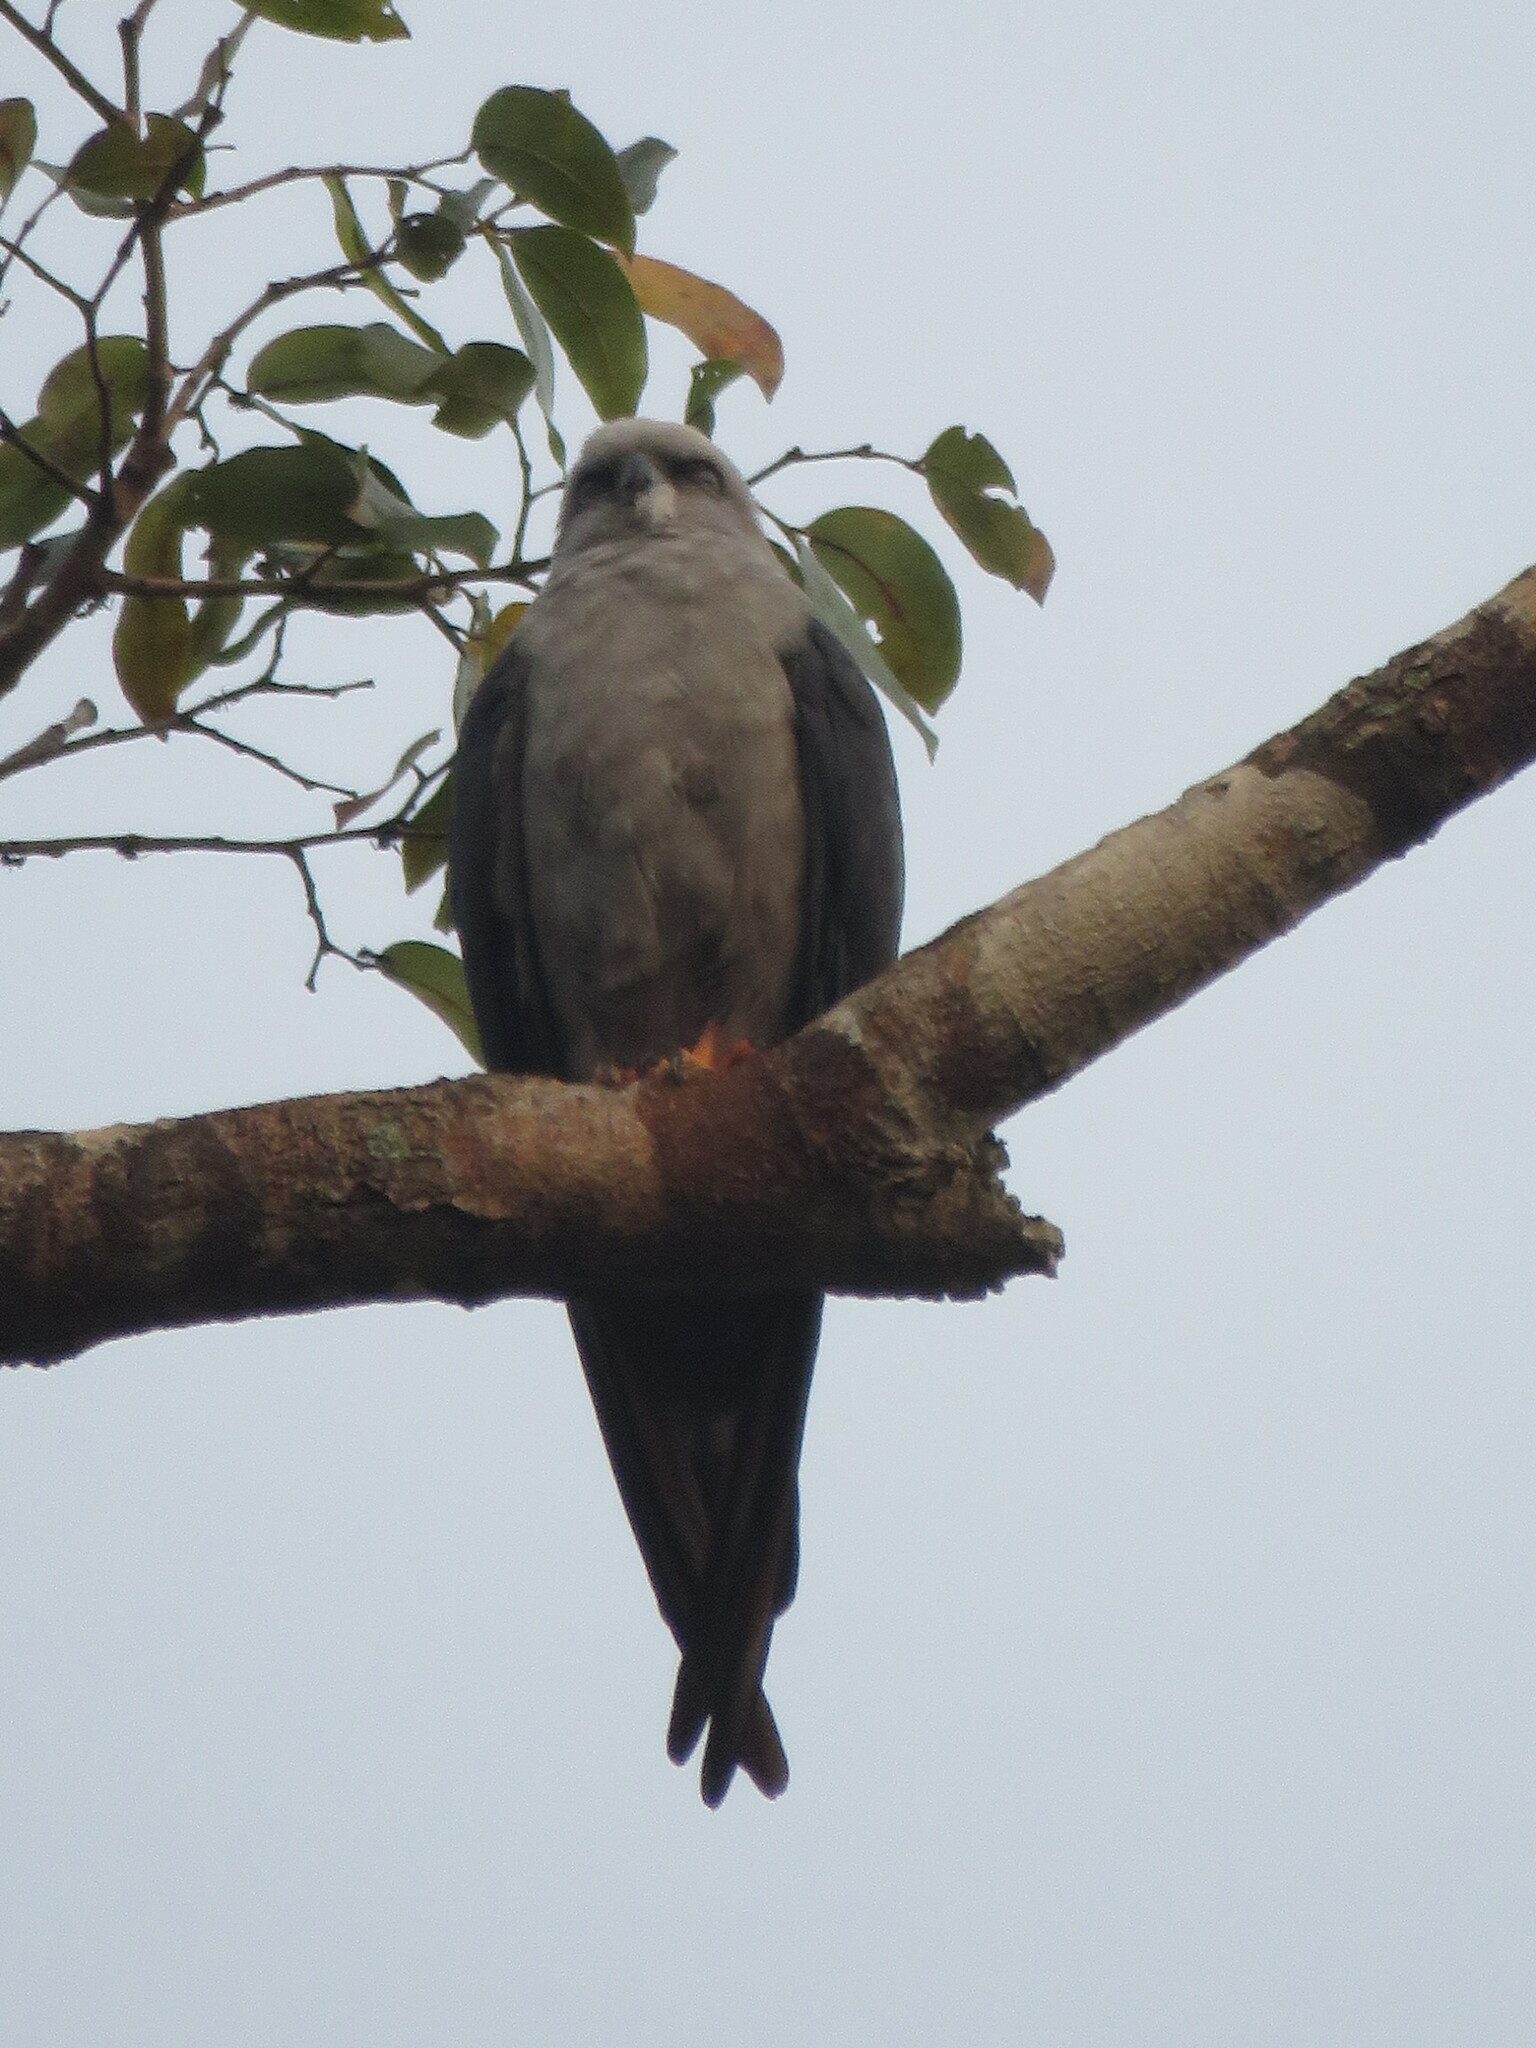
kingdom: Animalia
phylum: Chordata
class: Aves
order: Accipitriformes
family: Accipitridae
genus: Ictinia
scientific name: Ictinia plumbea
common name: Plumbeous kite
